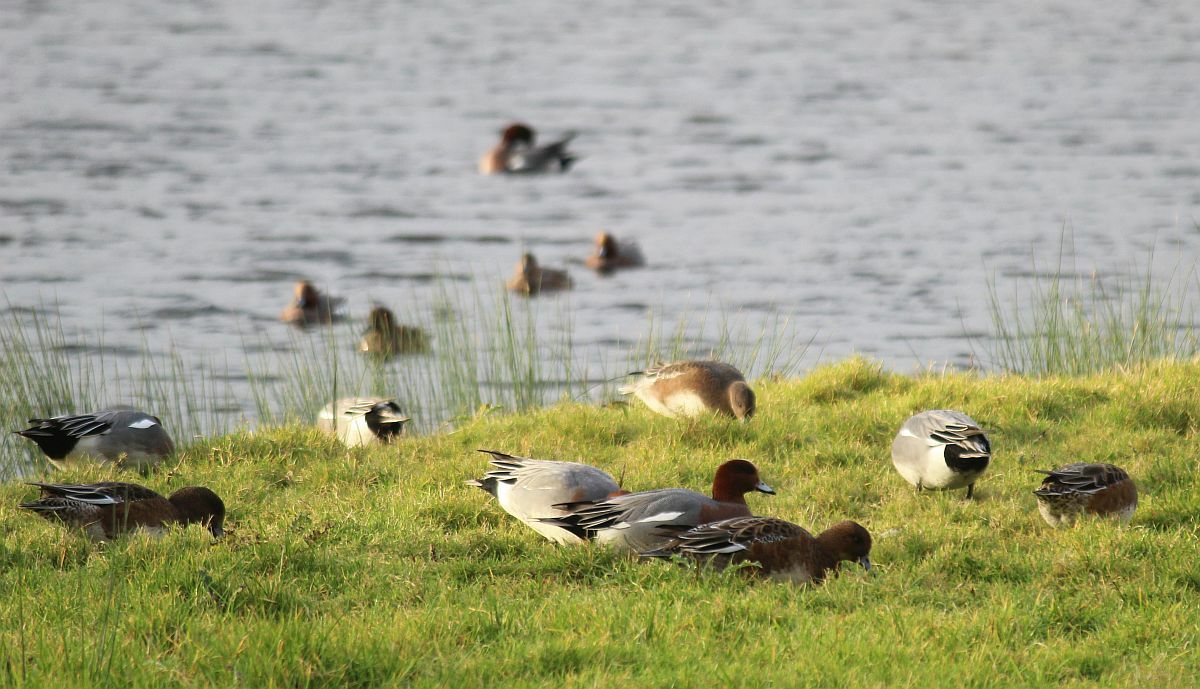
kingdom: Animalia
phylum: Chordata
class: Aves
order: Anseriformes
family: Anatidae
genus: Mareca
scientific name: Mareca penelope
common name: Eurasian wigeon
